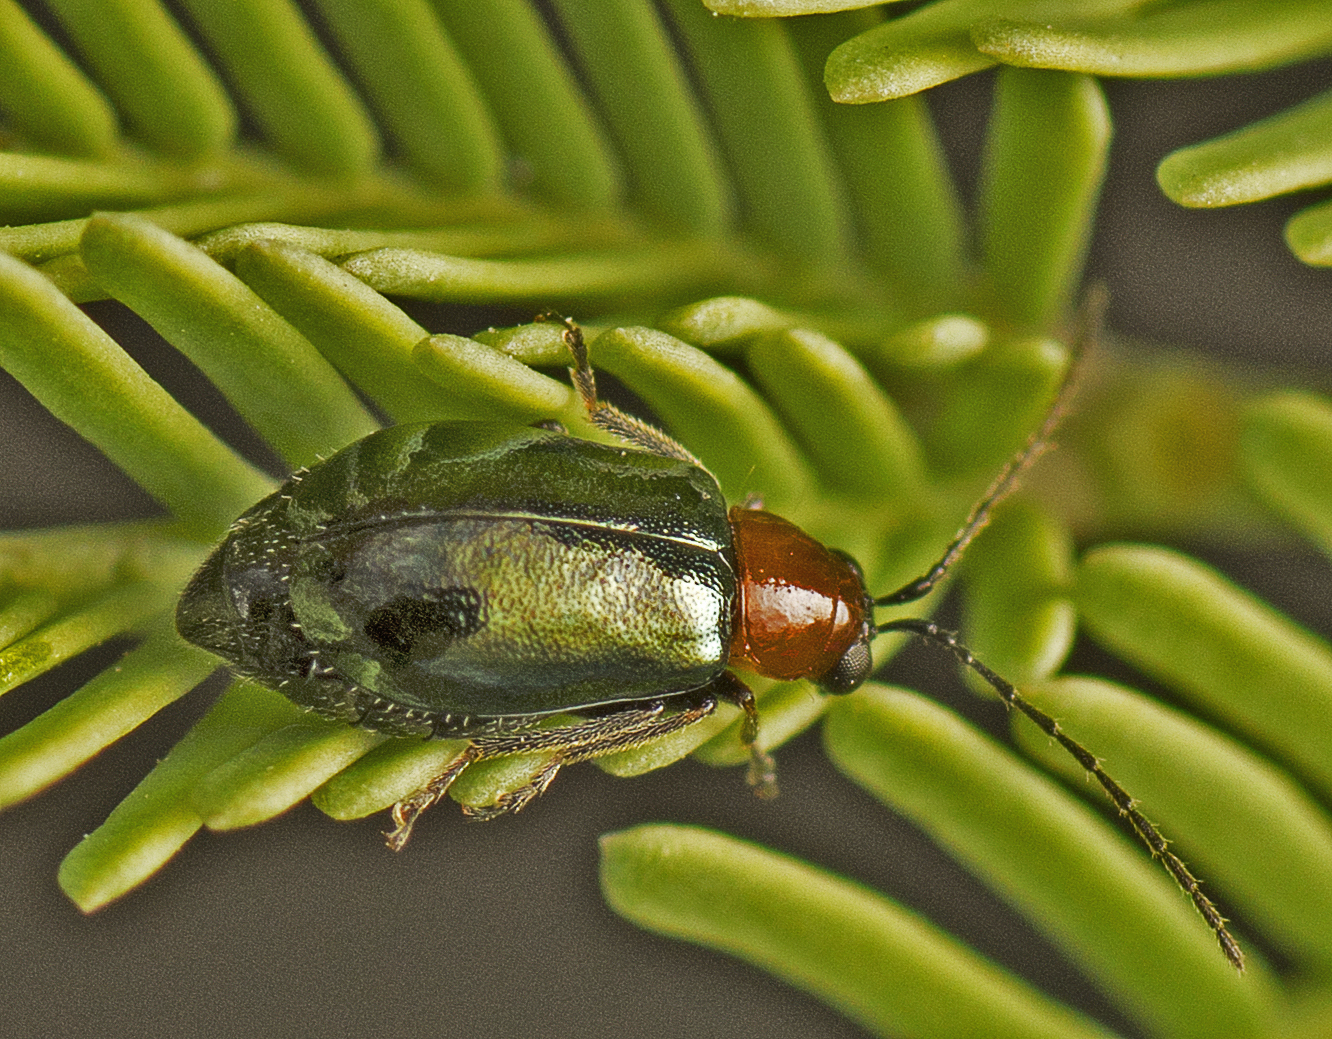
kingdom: Animalia
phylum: Arthropoda
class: Insecta
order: Coleoptera
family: Chrysomelidae
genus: Adoxia
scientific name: Adoxia
